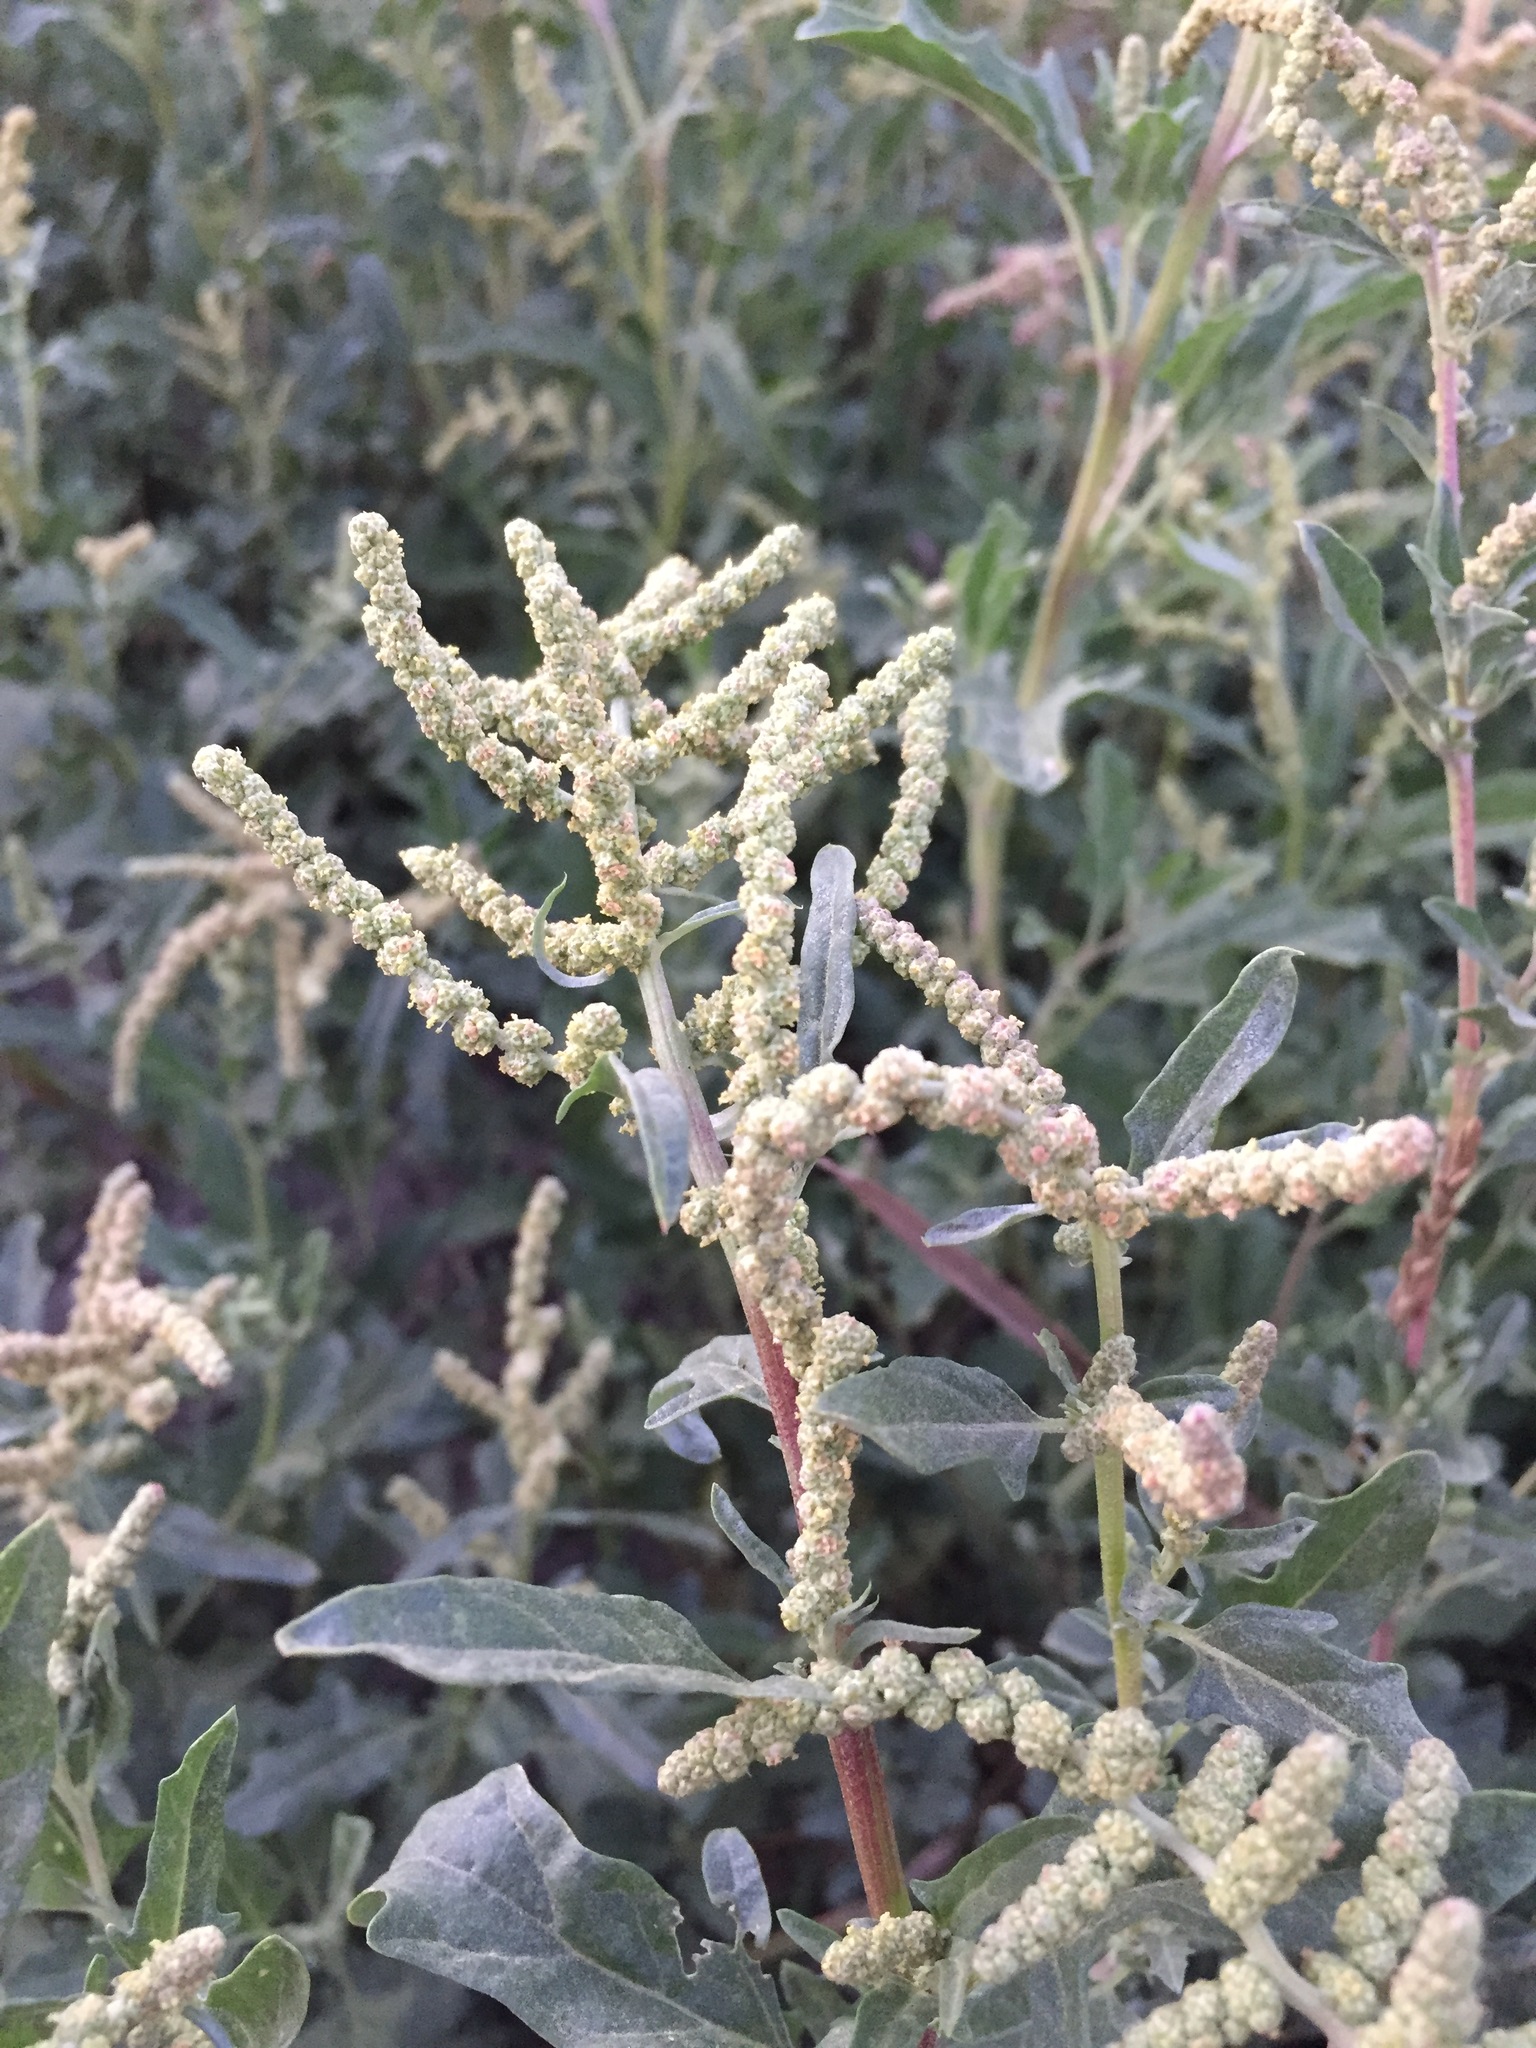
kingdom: Plantae
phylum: Tracheophyta
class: Magnoliopsida
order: Caryophyllales
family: Amaranthaceae
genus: Atriplex
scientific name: Atriplex tatarica
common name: Tatarian orache
